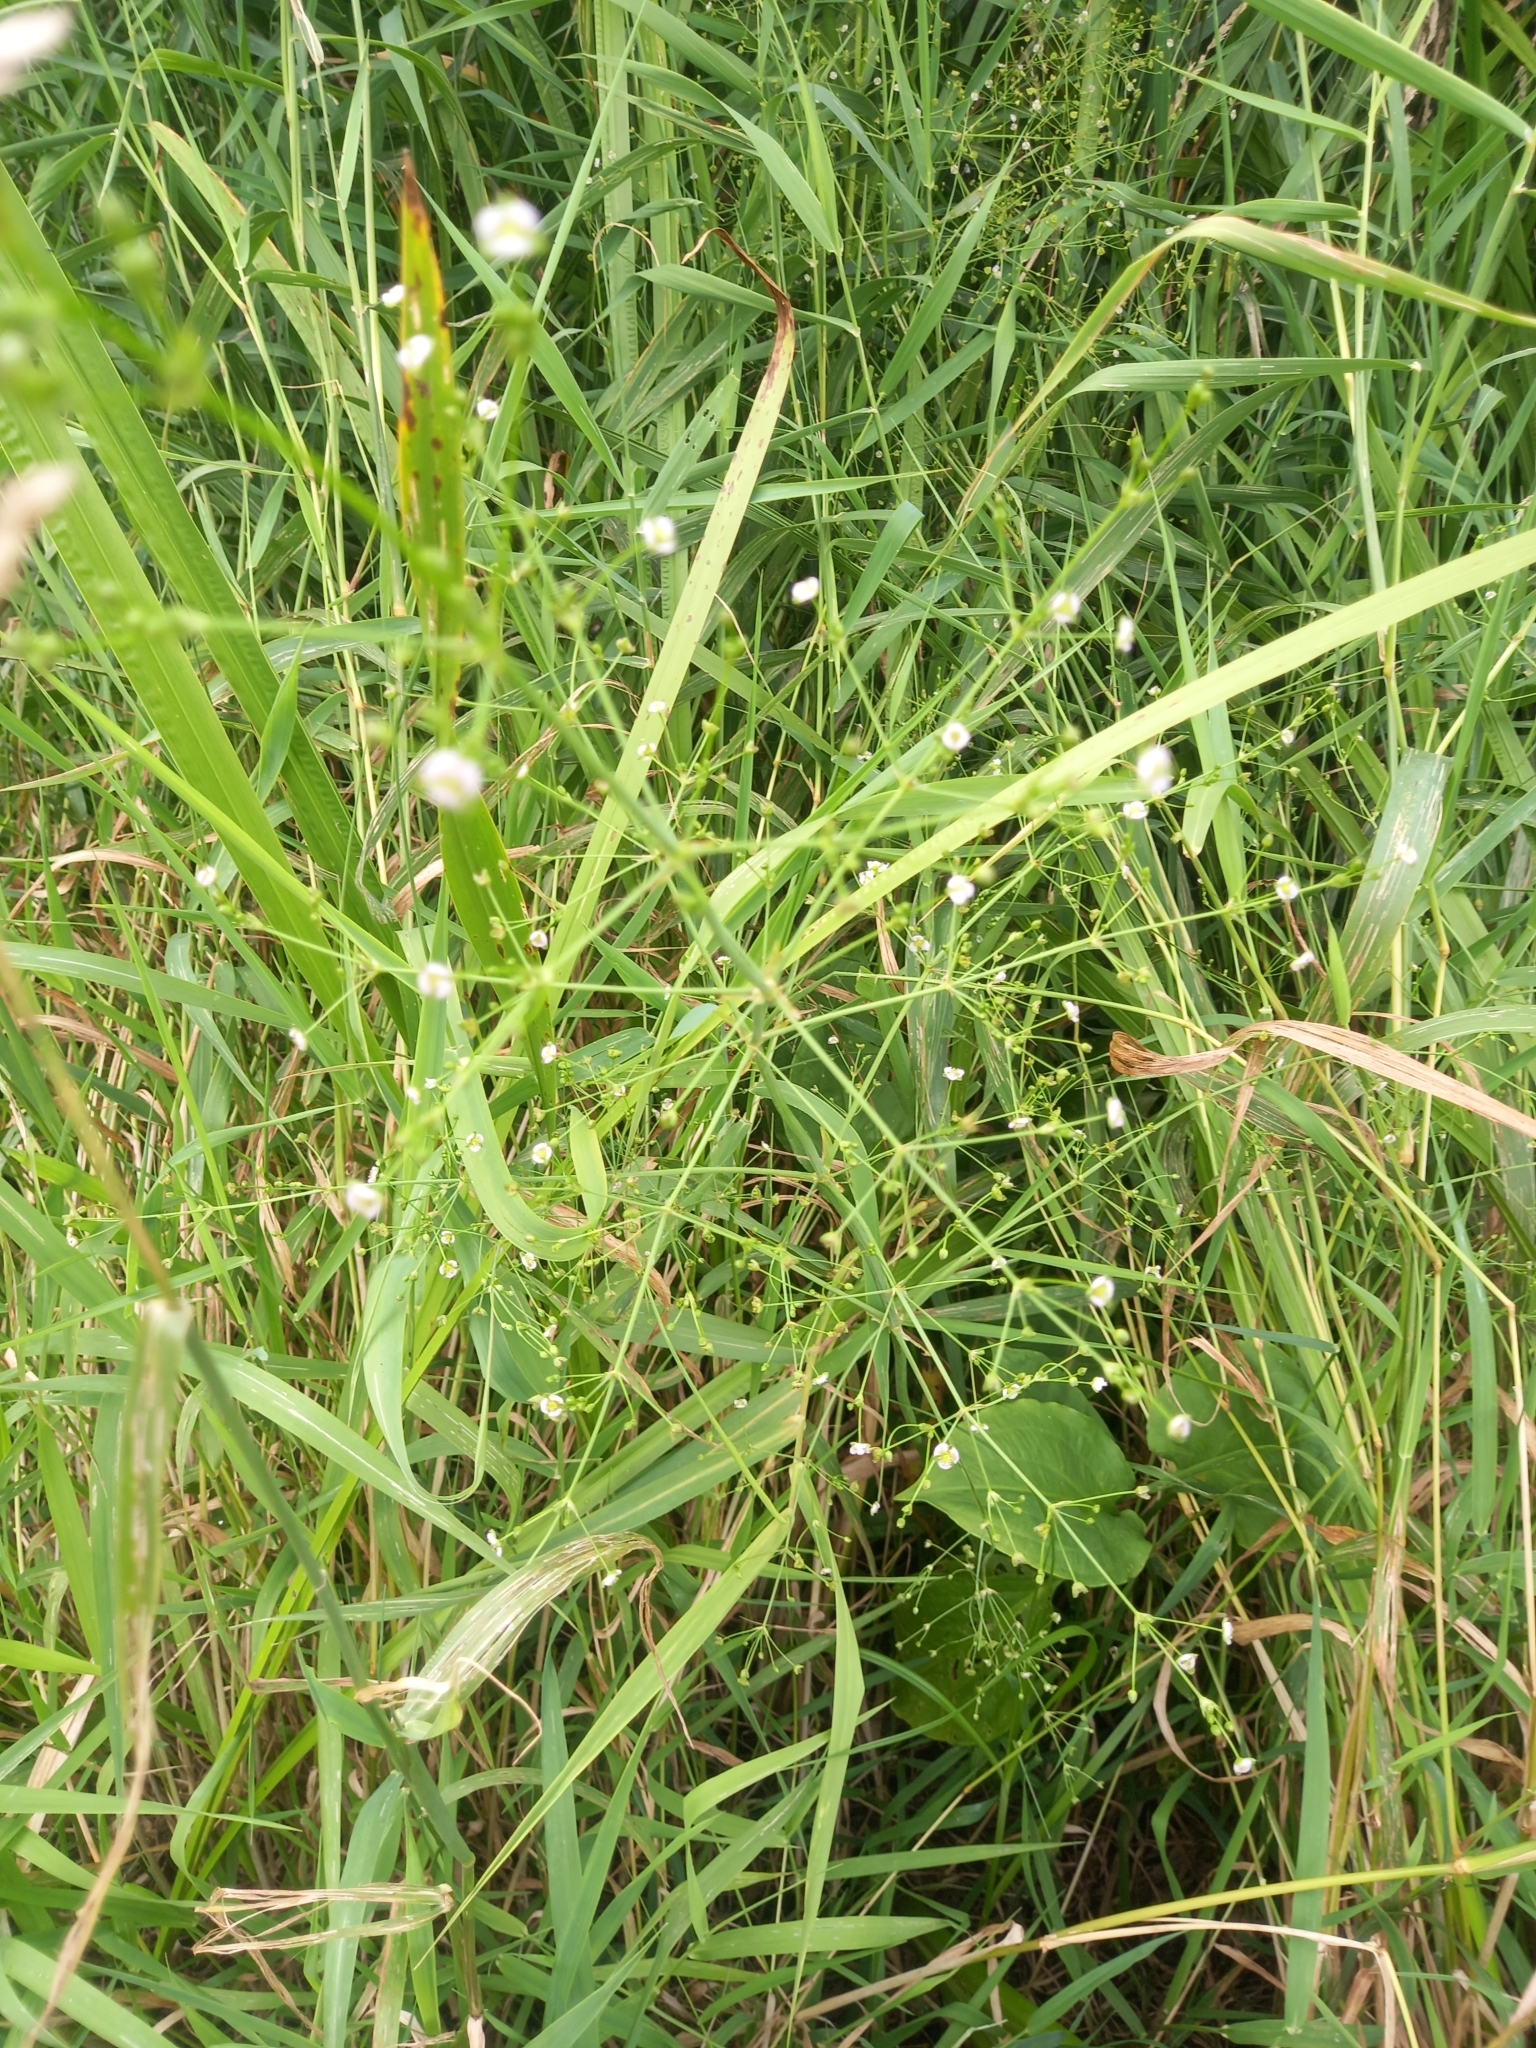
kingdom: Plantae
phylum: Tracheophyta
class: Liliopsida
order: Alismatales
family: Alismataceae
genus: Alisma
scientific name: Alisma plantago-aquatica
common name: Water-plantain
